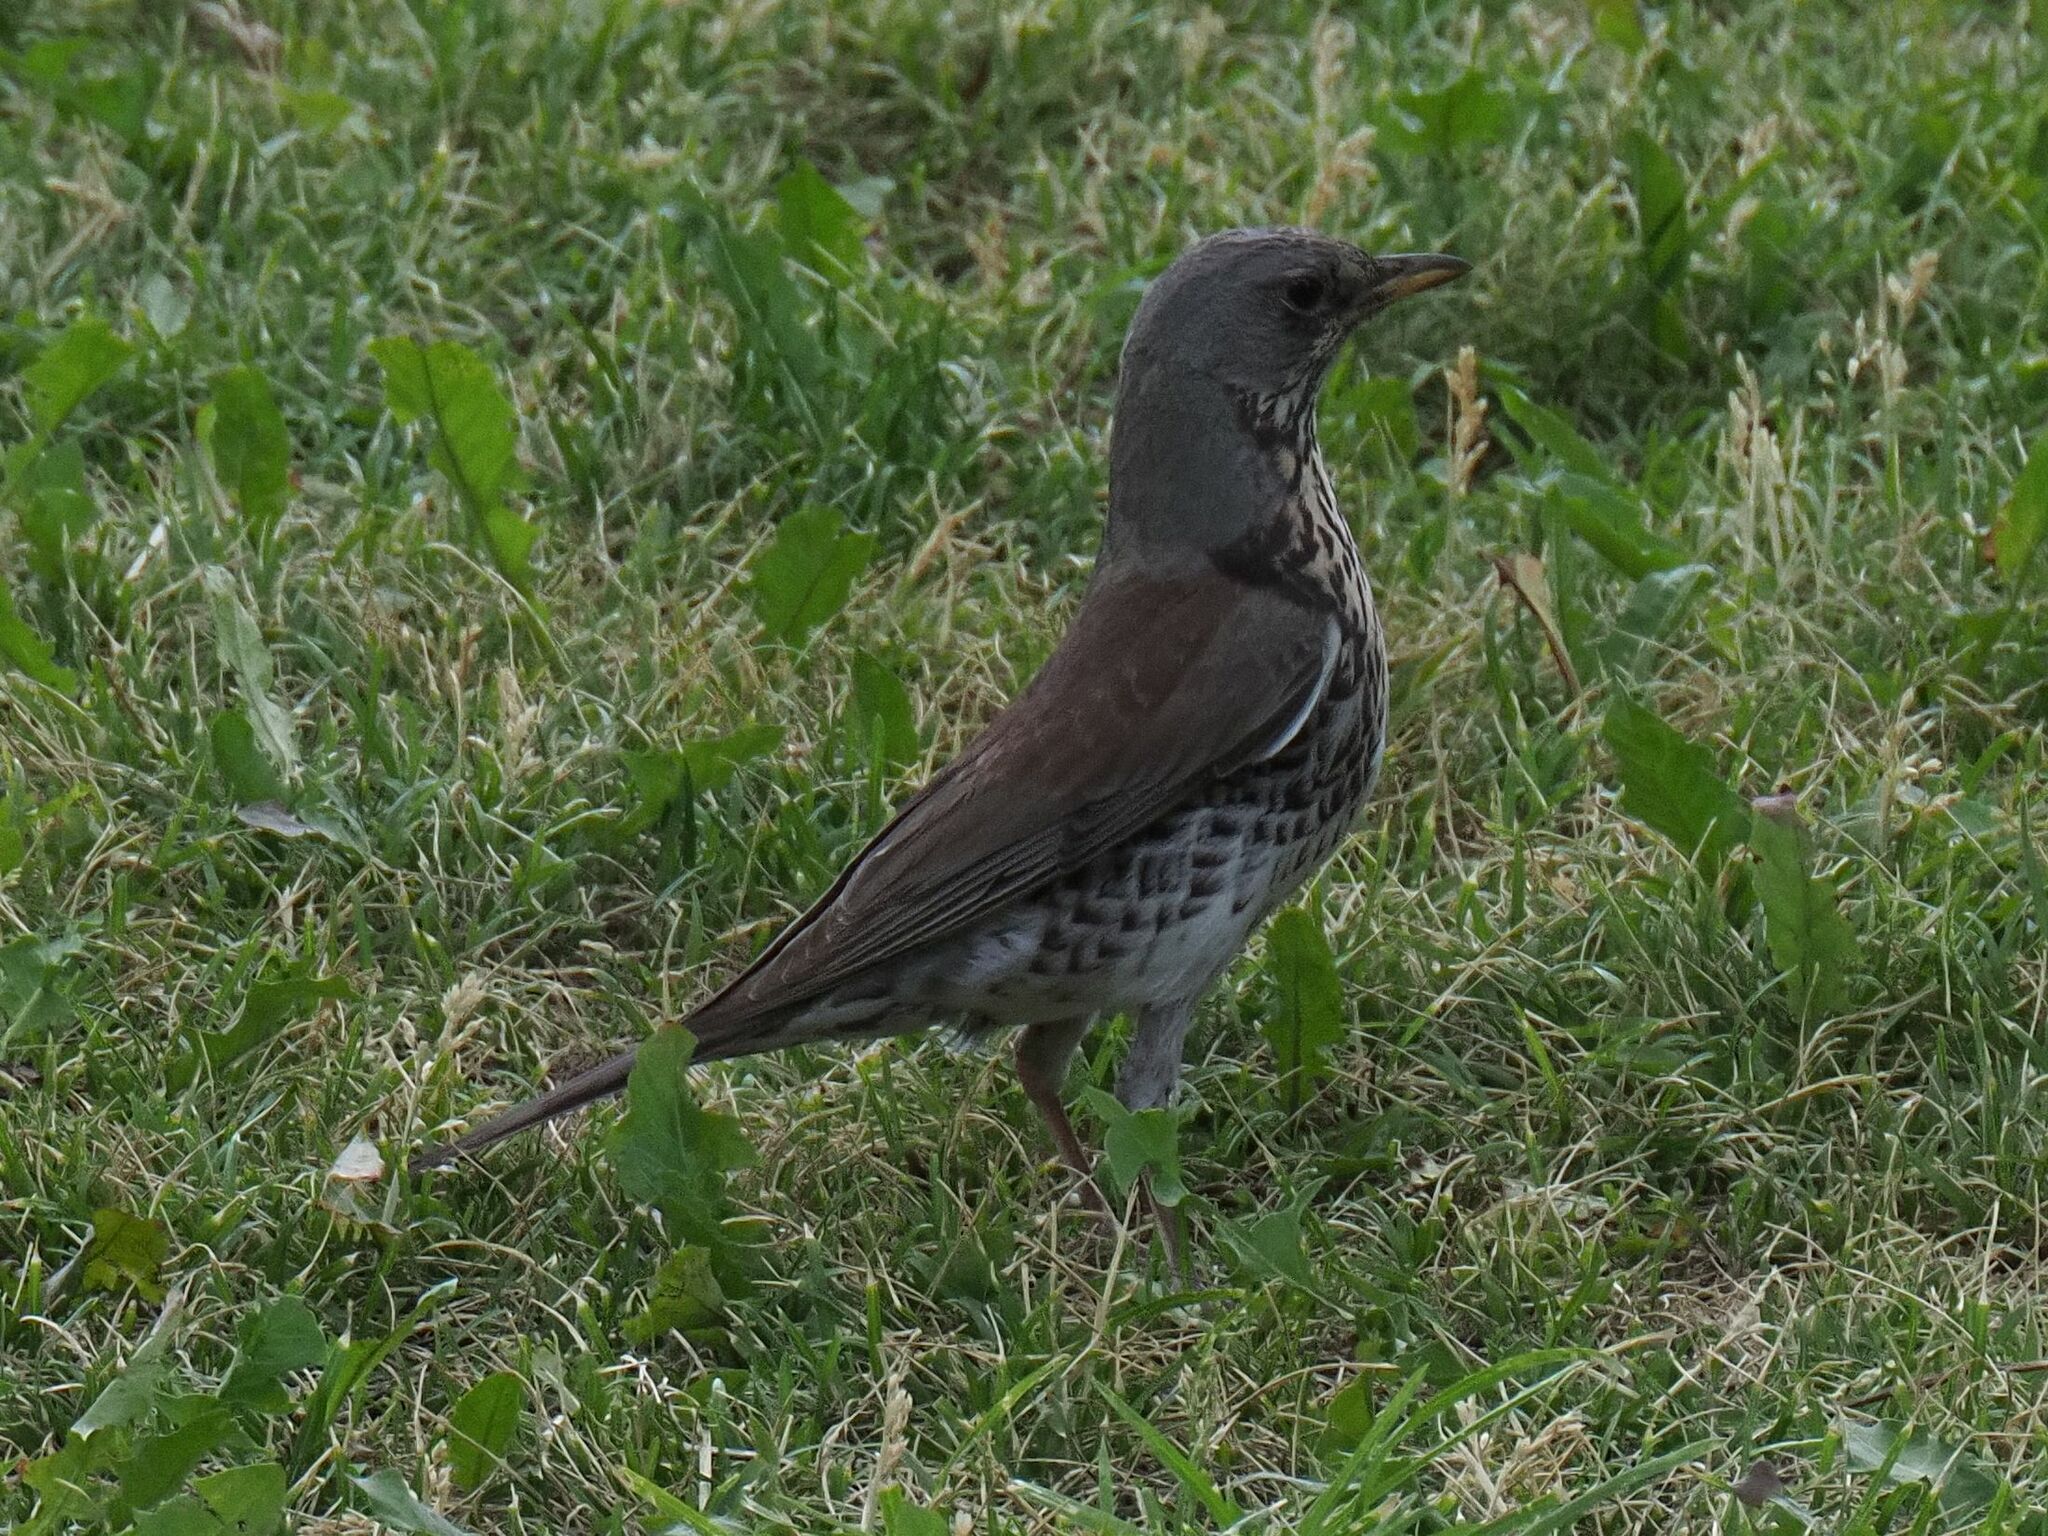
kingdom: Animalia
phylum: Chordata
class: Aves
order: Passeriformes
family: Turdidae
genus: Turdus
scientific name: Turdus pilaris
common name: Fieldfare
